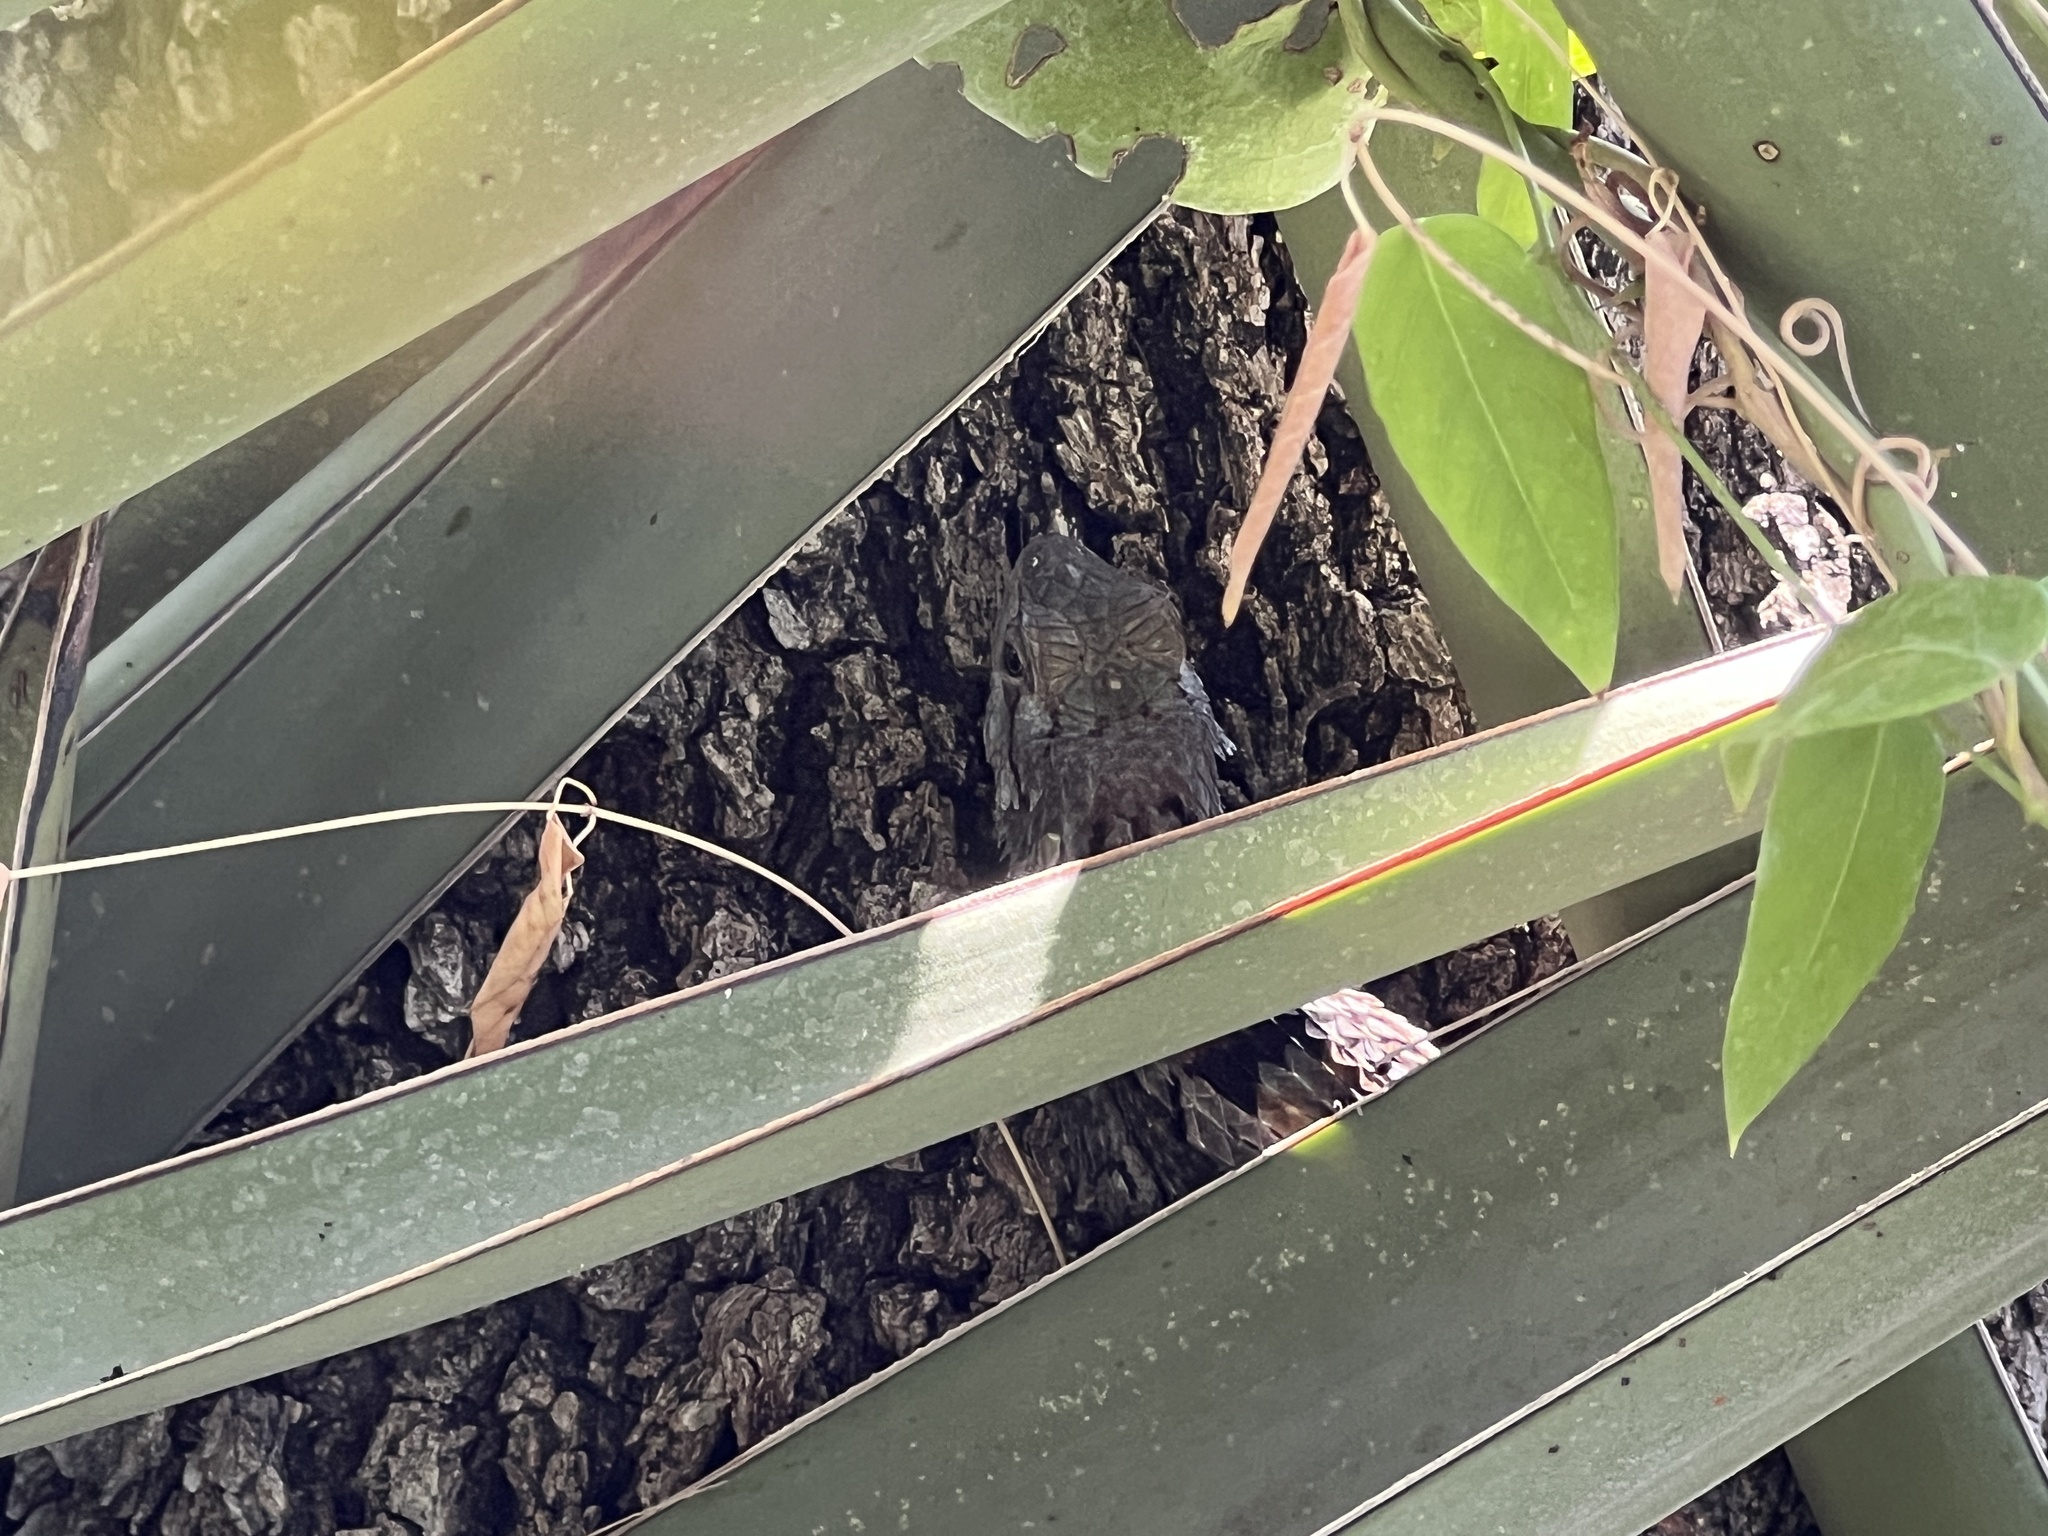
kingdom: Animalia
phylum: Chordata
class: Squamata
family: Phrynosomatidae
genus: Sceloporus
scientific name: Sceloporus olivaceus
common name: Texas spiny lizard
